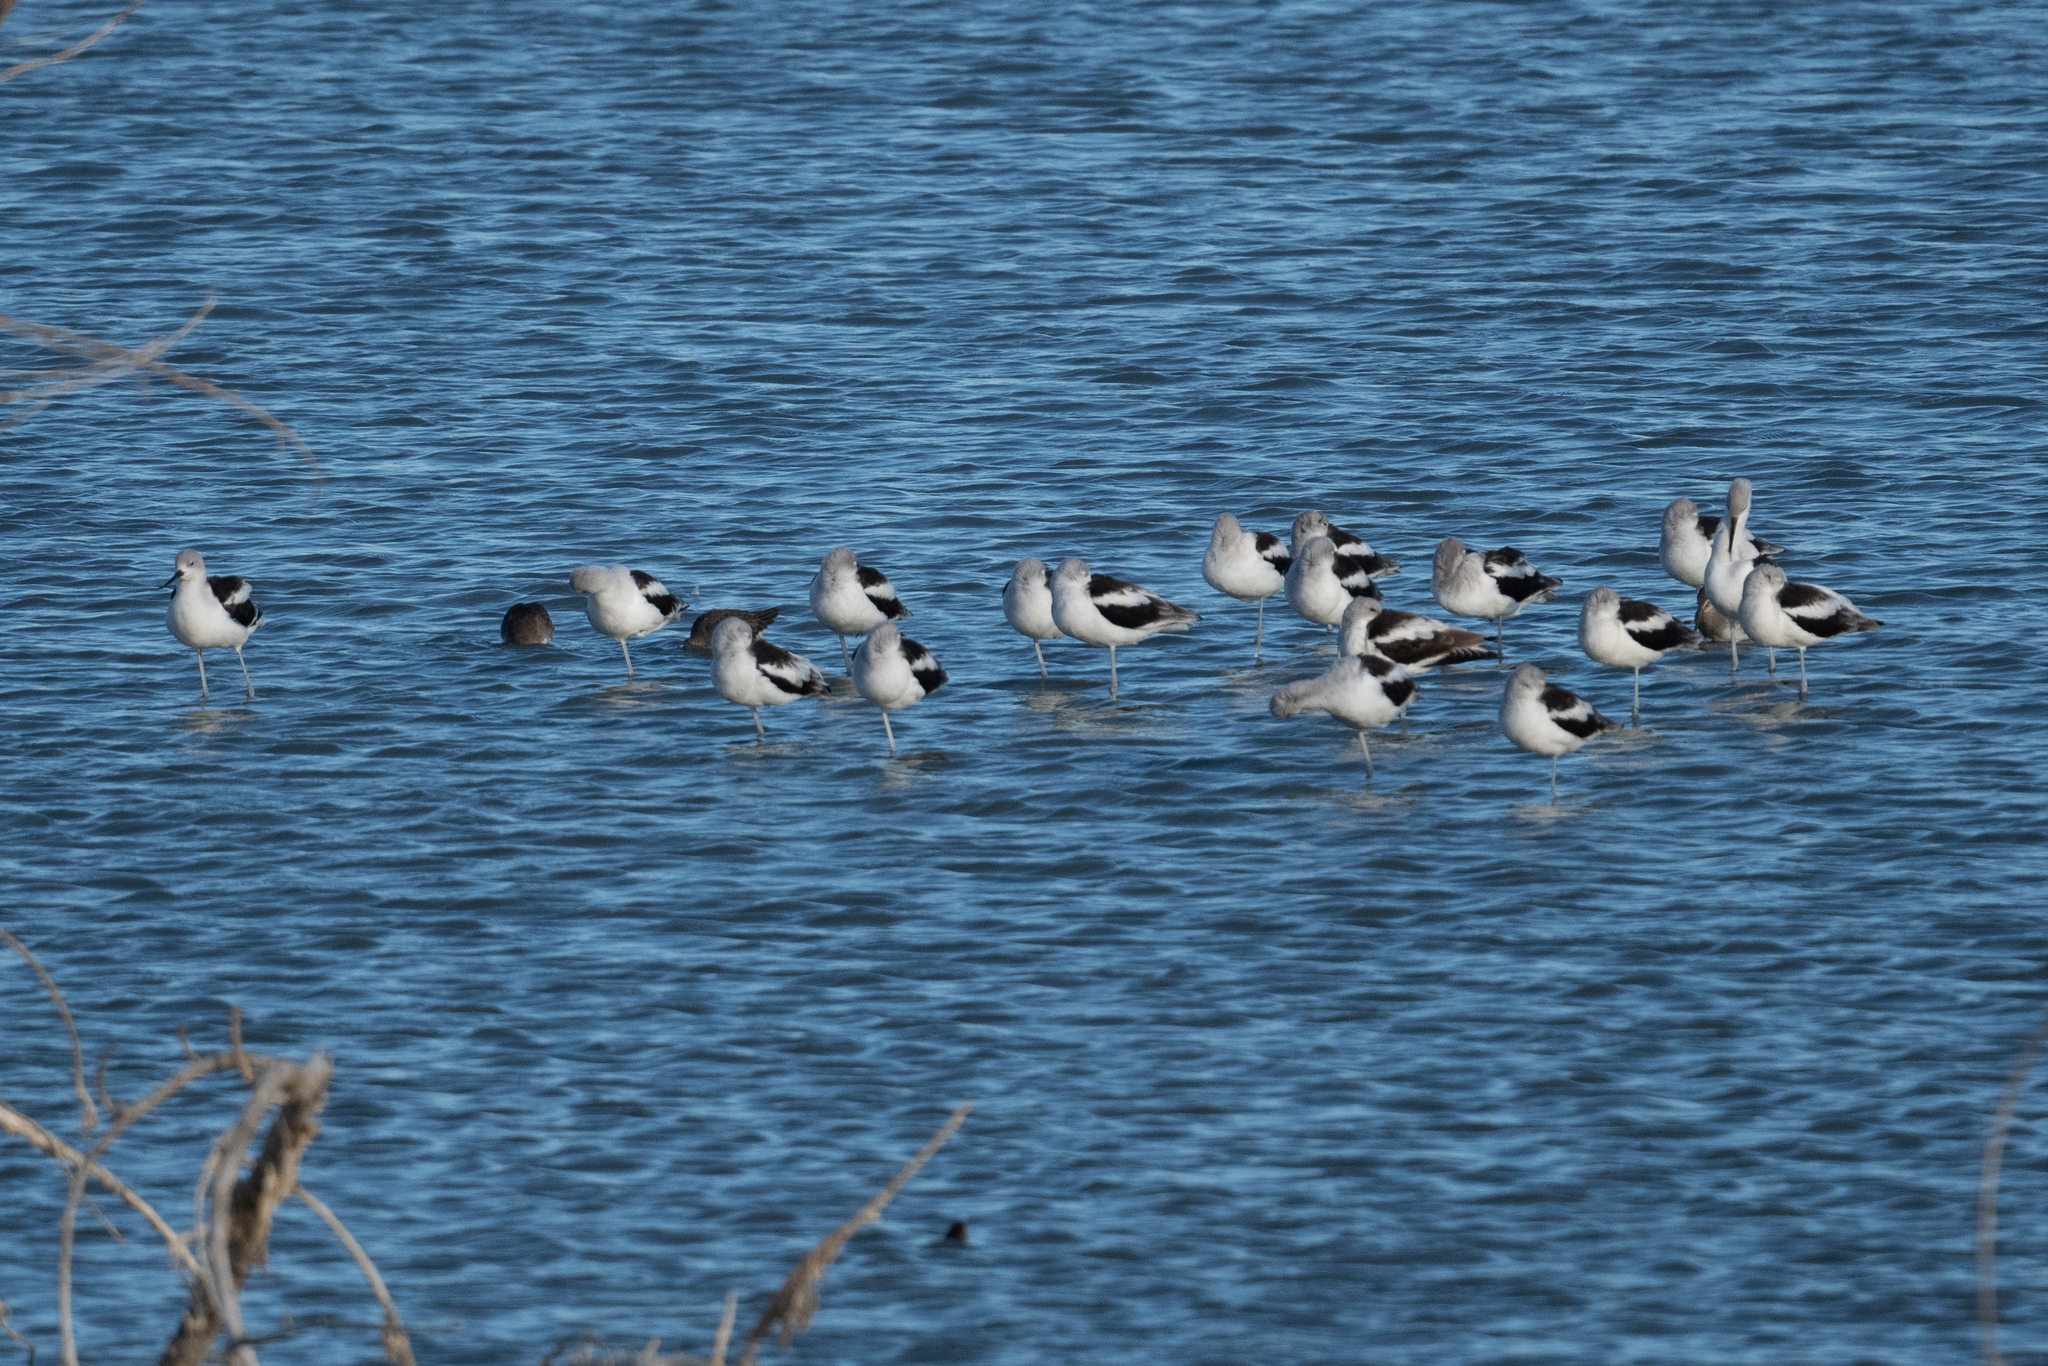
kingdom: Animalia
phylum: Chordata
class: Aves
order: Charadriiformes
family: Recurvirostridae
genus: Recurvirostra
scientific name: Recurvirostra americana
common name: American avocet
